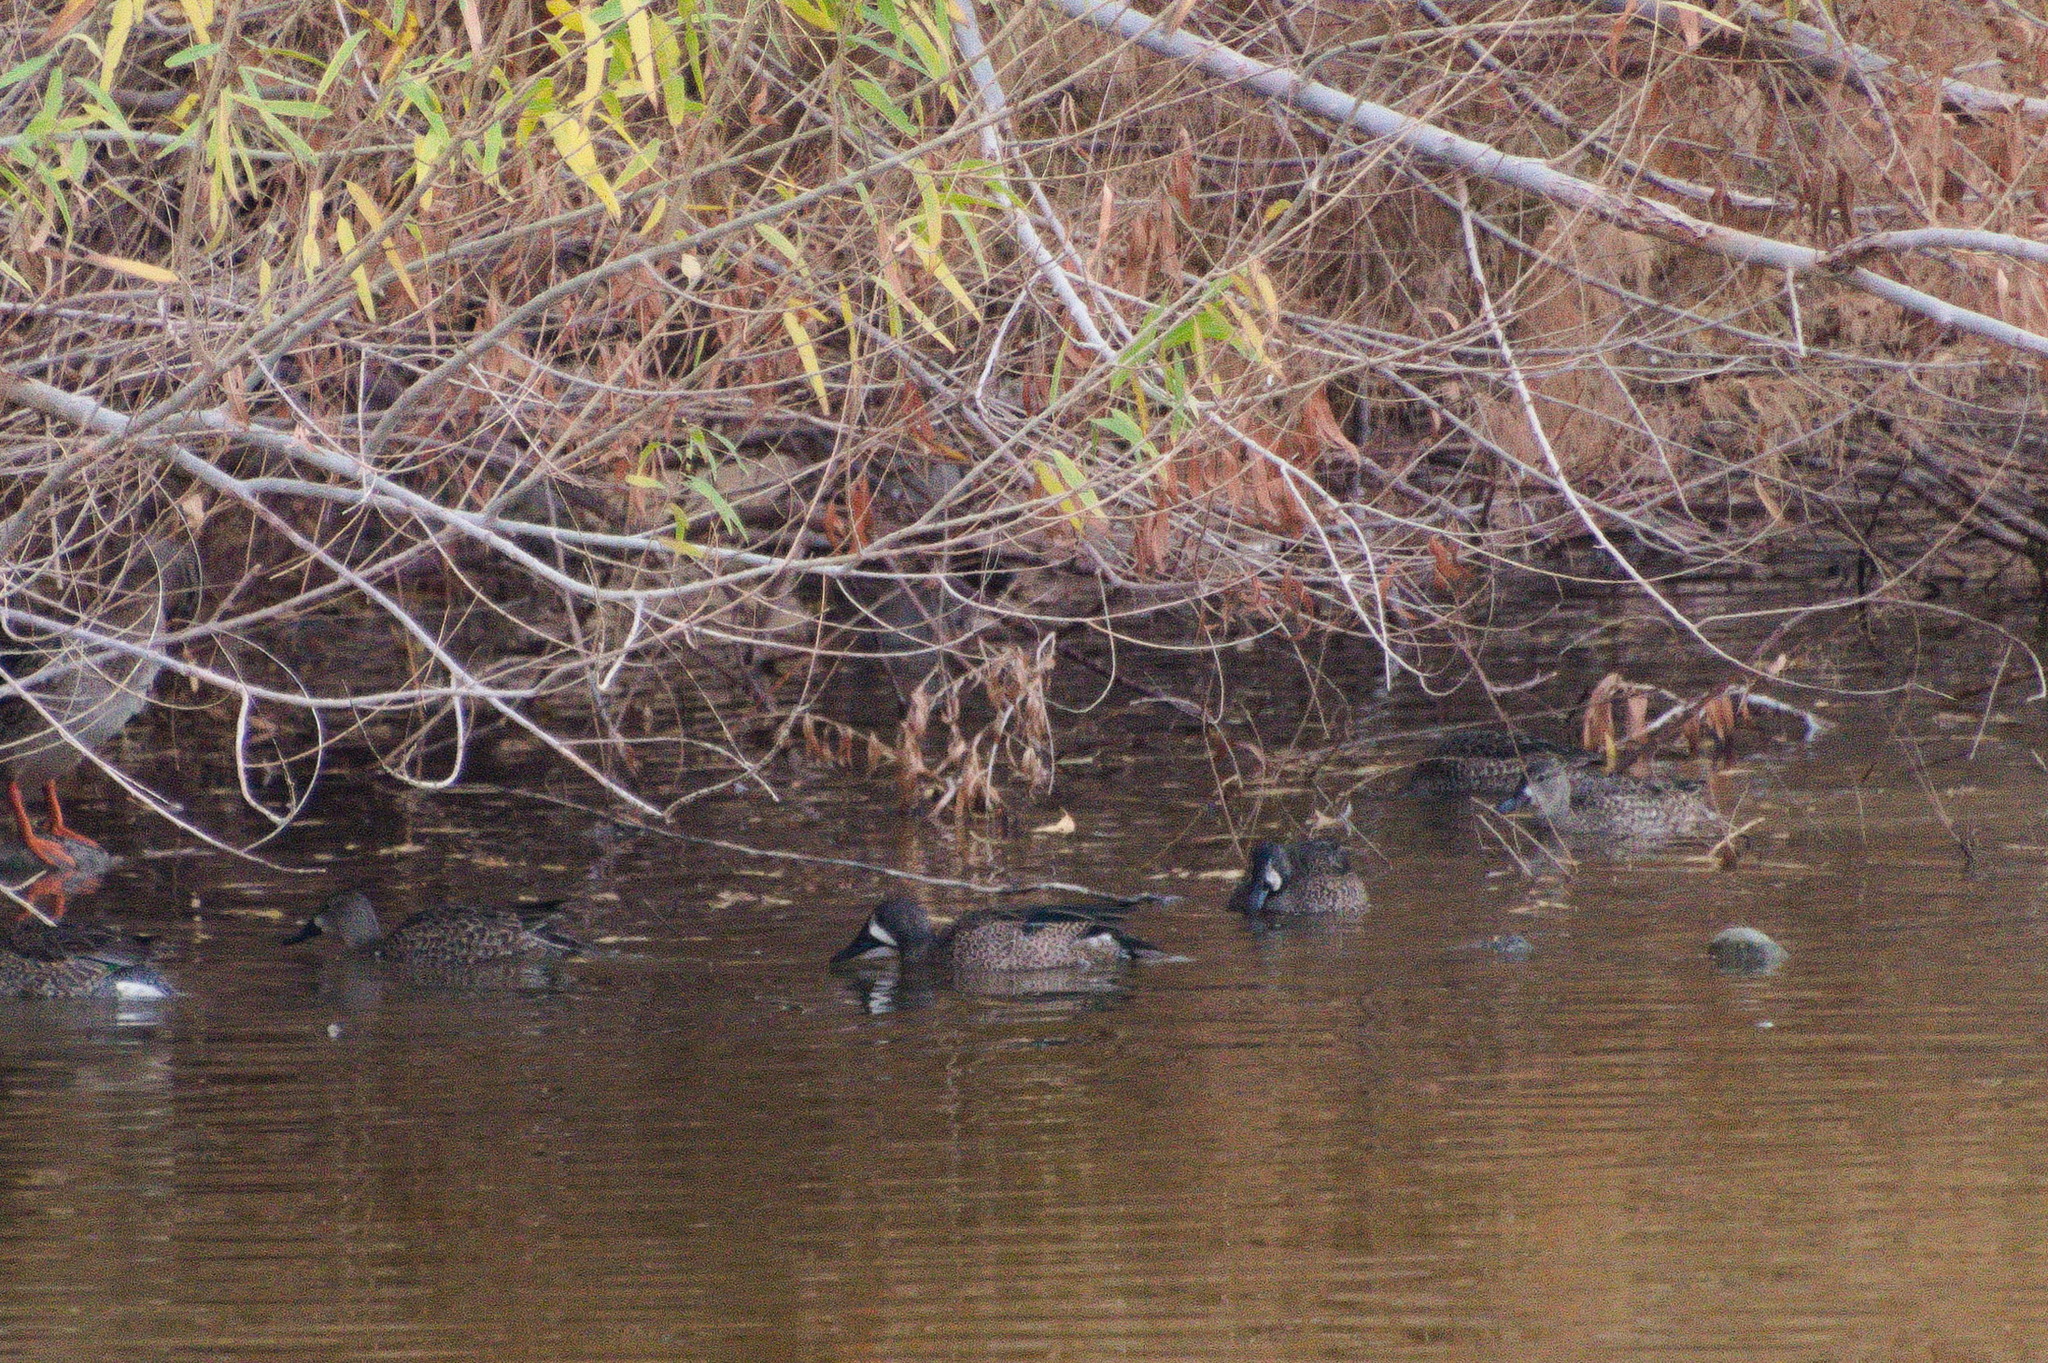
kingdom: Animalia
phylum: Chordata
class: Aves
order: Anseriformes
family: Anatidae
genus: Spatula
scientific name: Spatula discors
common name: Blue-winged teal
